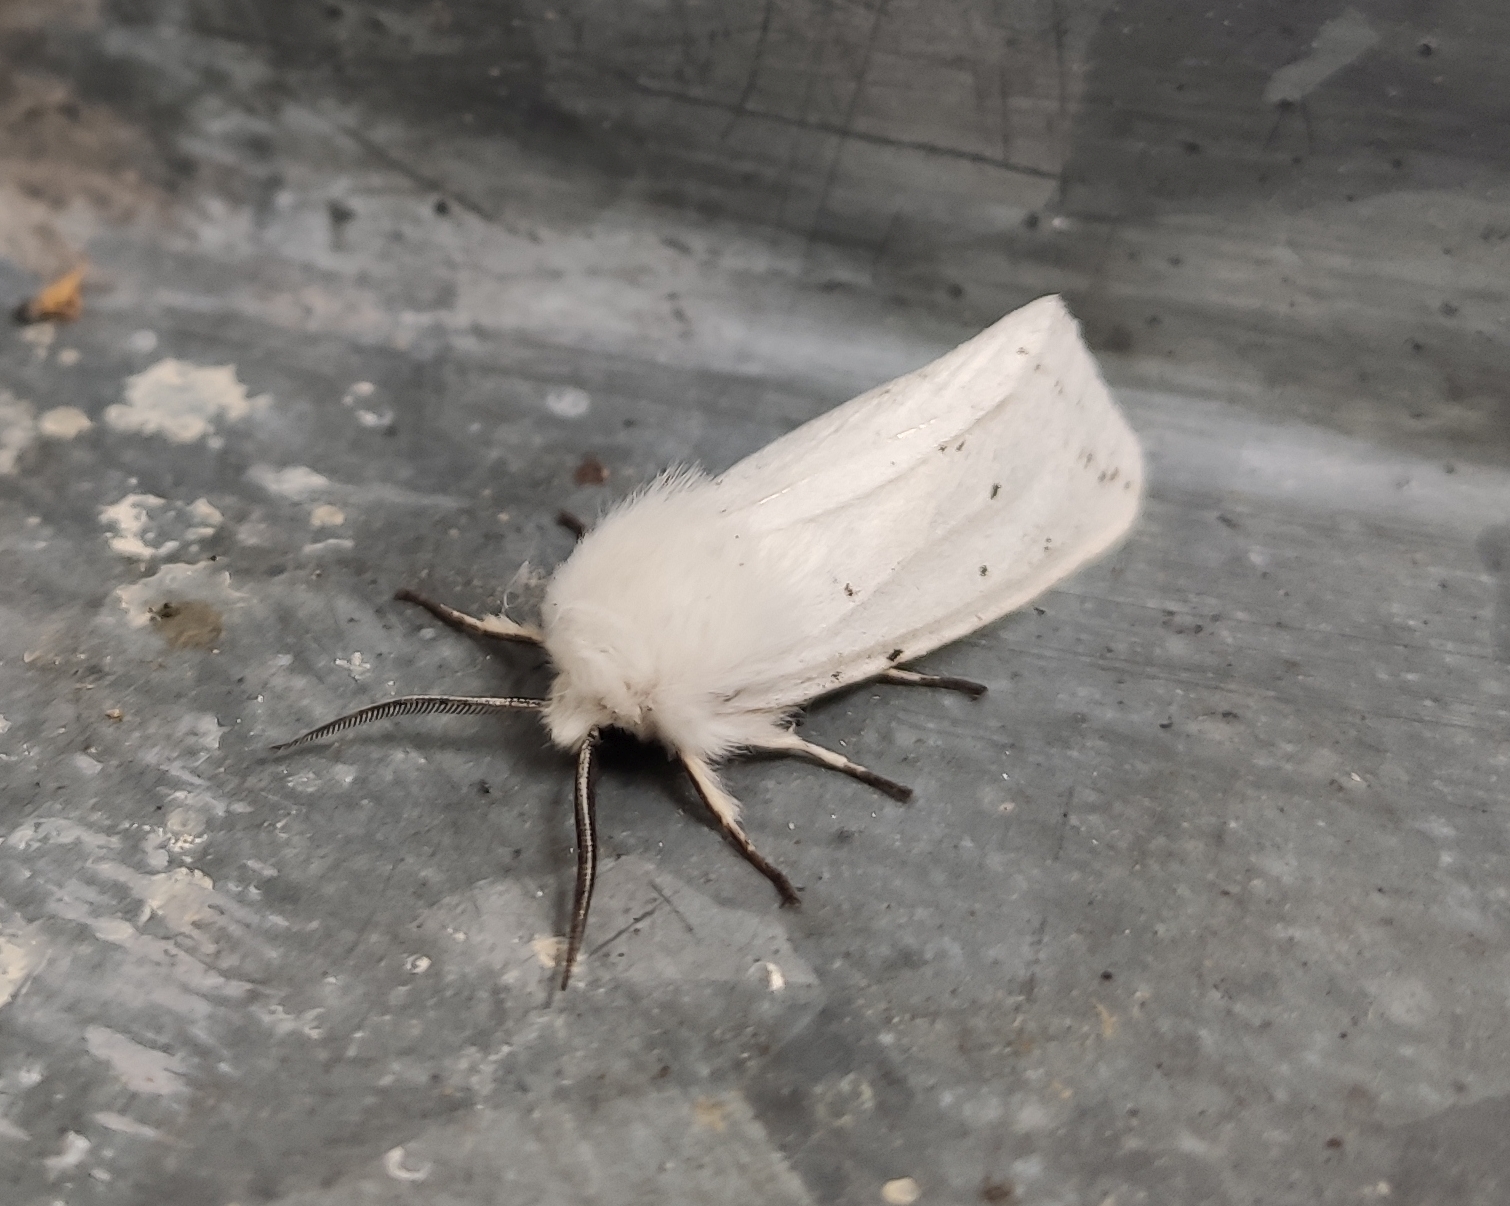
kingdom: Animalia
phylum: Arthropoda
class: Insecta
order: Lepidoptera
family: Erebidae
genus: Spilosoma
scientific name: Spilosoma lubricipeda
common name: White ermine
